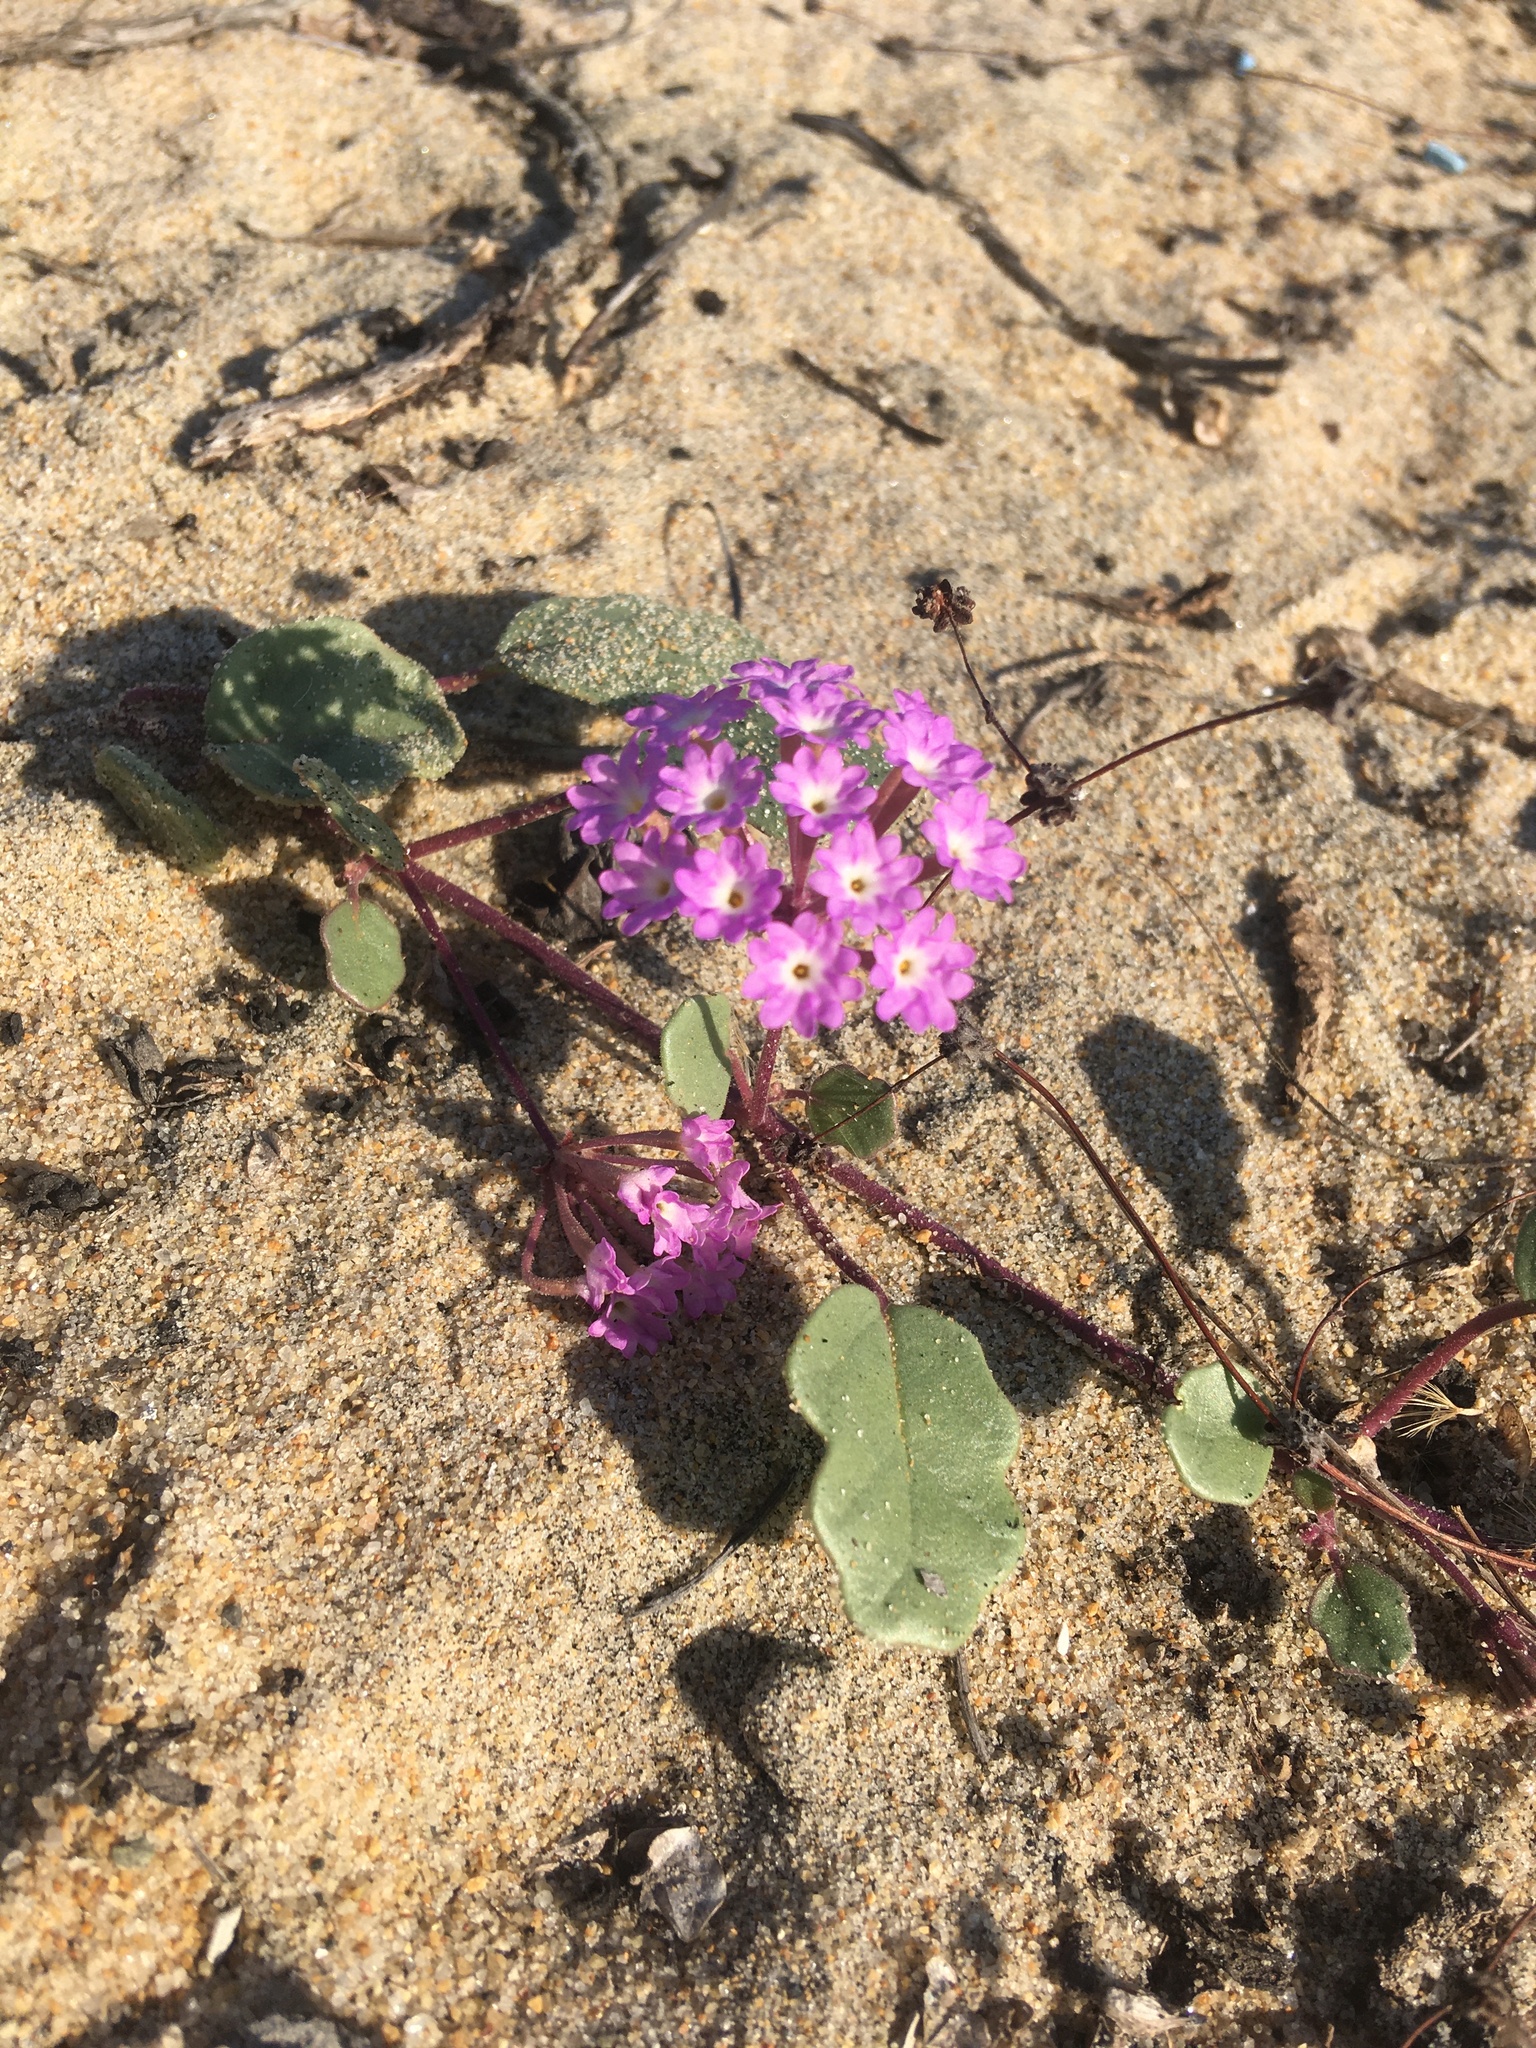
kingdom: Plantae
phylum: Tracheophyta
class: Magnoliopsida
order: Caryophyllales
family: Nyctaginaceae
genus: Abronia
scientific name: Abronia umbellata
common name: Sand-verbena
